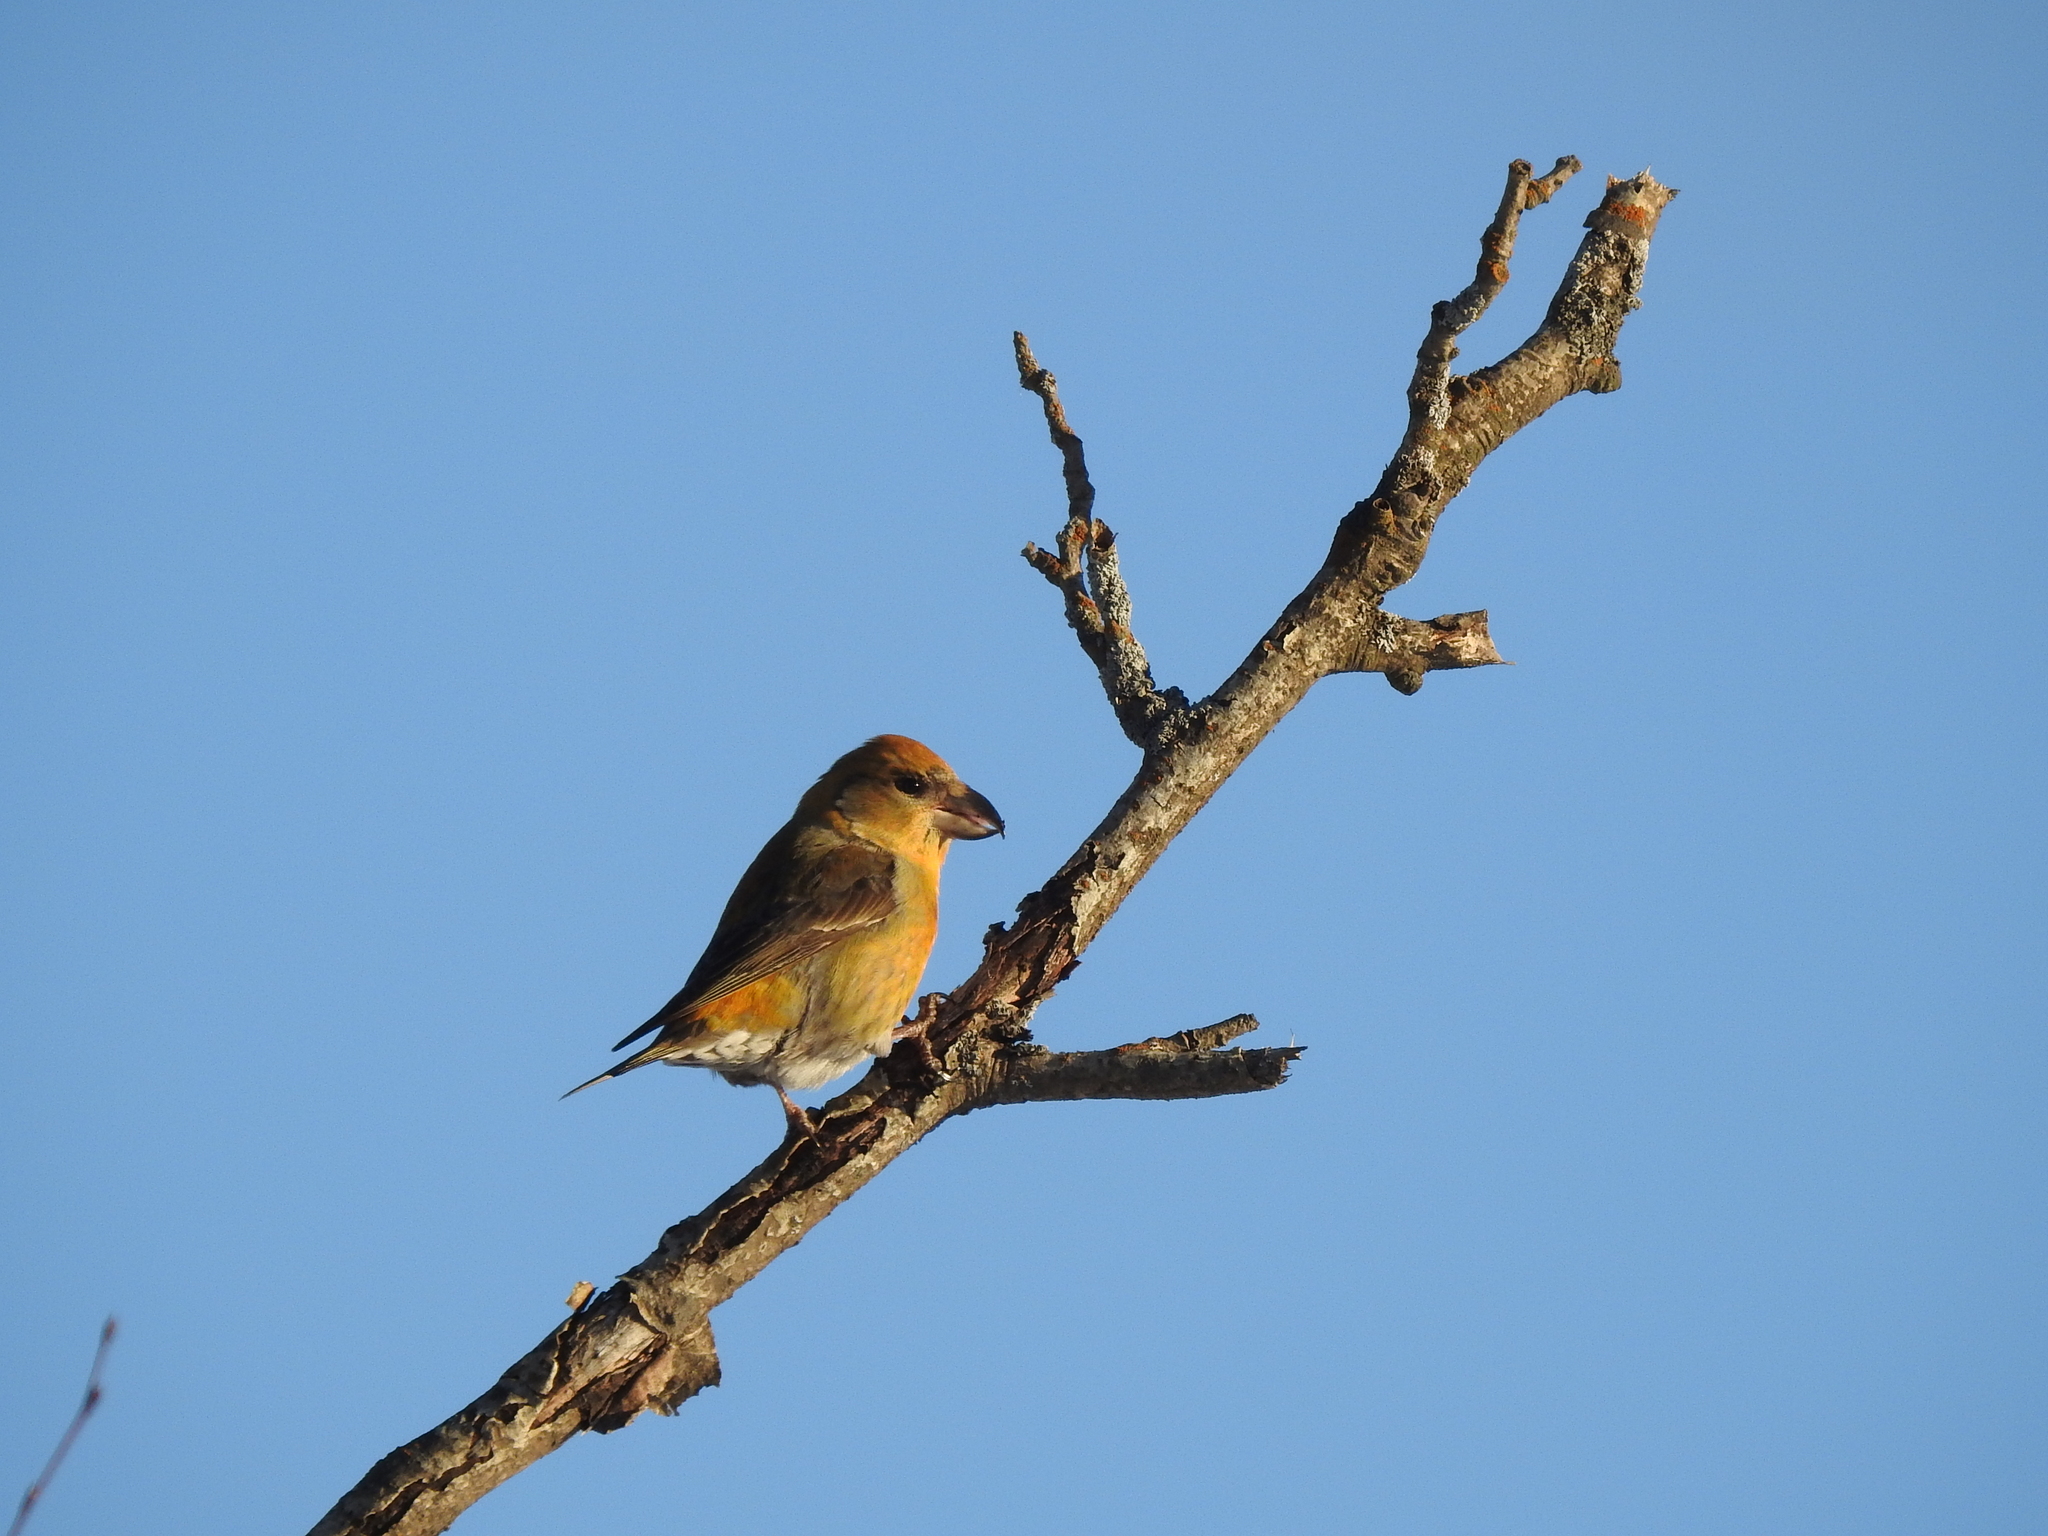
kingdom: Animalia
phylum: Chordata
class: Aves
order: Passeriformes
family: Fringillidae
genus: Loxia
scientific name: Loxia curvirostra
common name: Red crossbill
